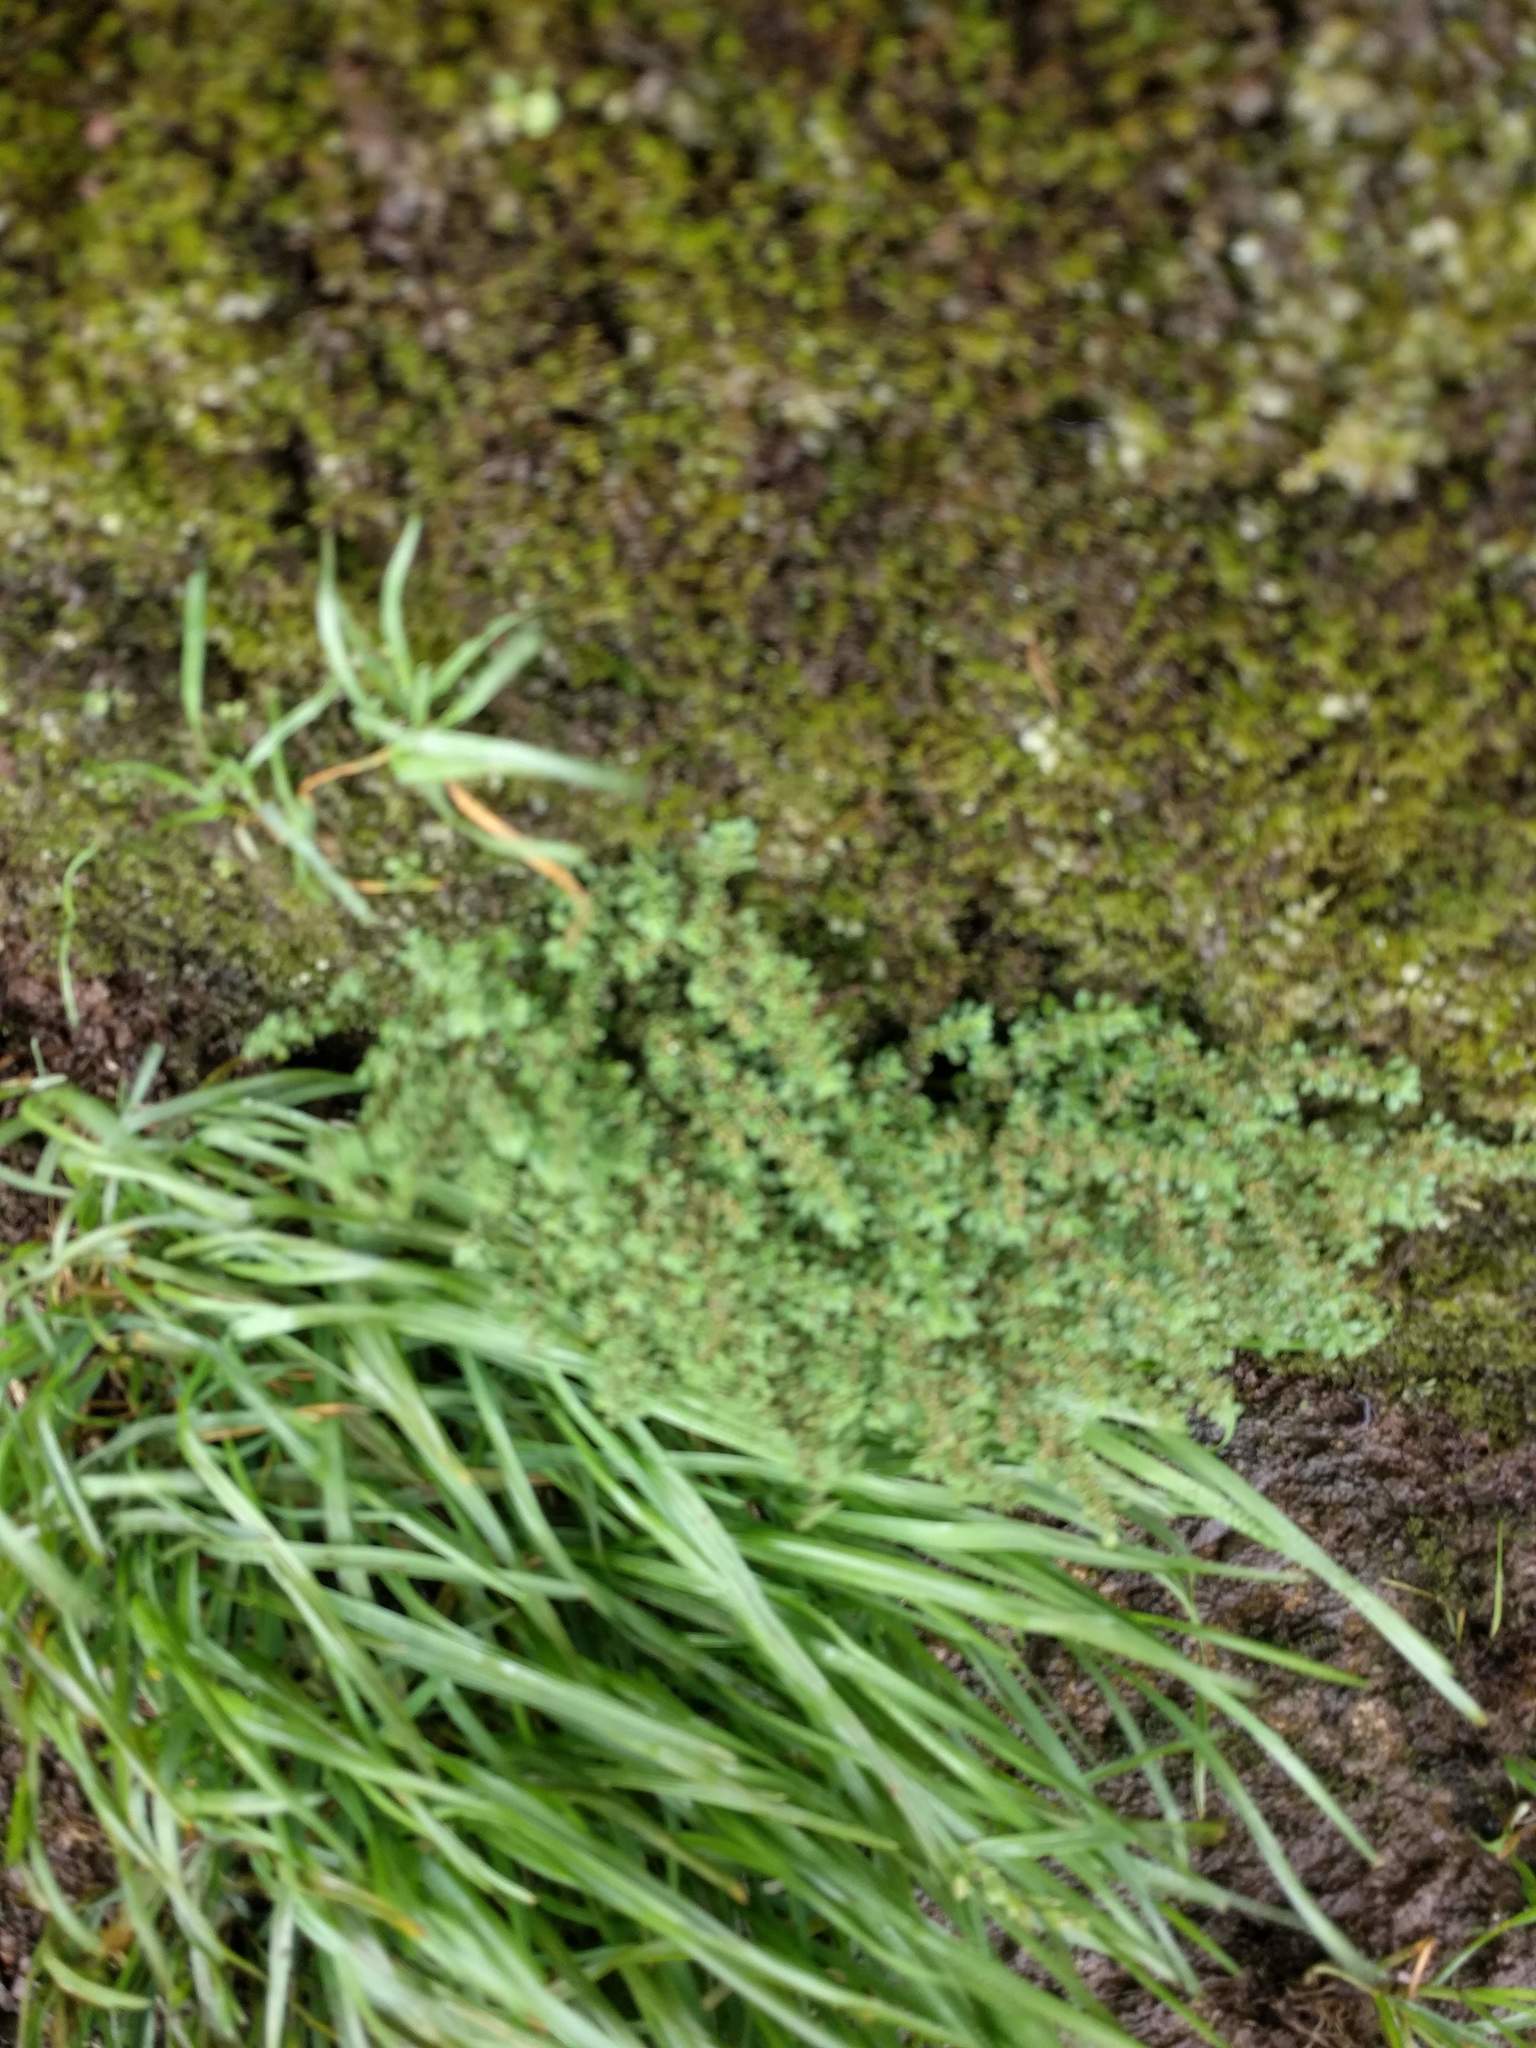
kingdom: Plantae
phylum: Tracheophyta
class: Magnoliopsida
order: Rosales
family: Urticaceae
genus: Pilea
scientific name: Pilea microphylla
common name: Artillery-plant
